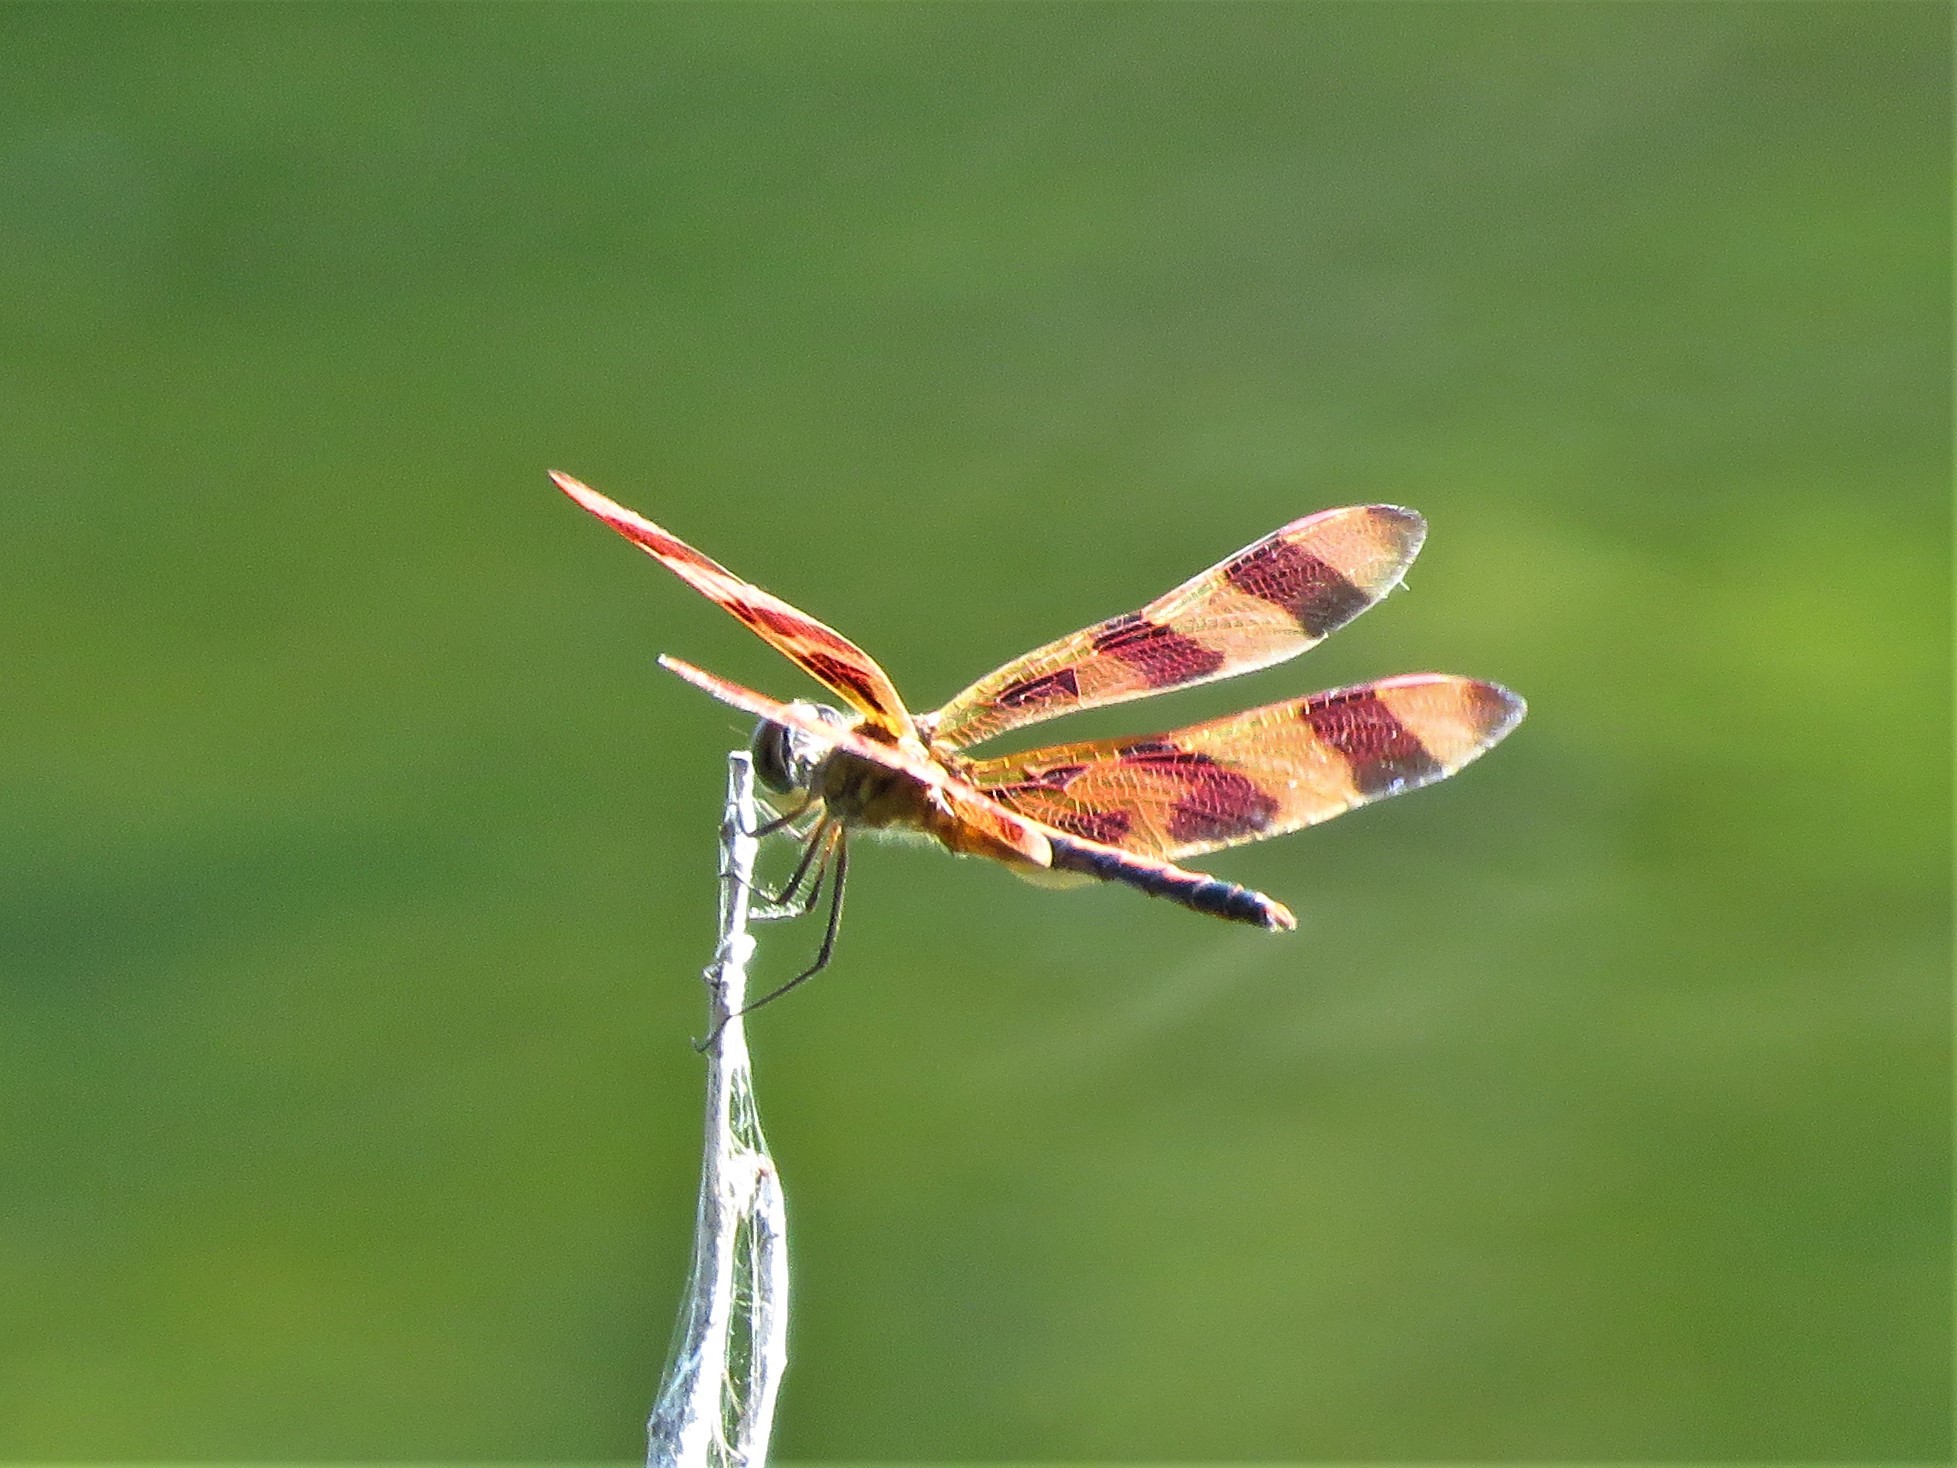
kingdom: Animalia
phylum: Arthropoda
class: Insecta
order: Odonata
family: Libellulidae
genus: Celithemis
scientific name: Celithemis eponina
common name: Halloween pennant
